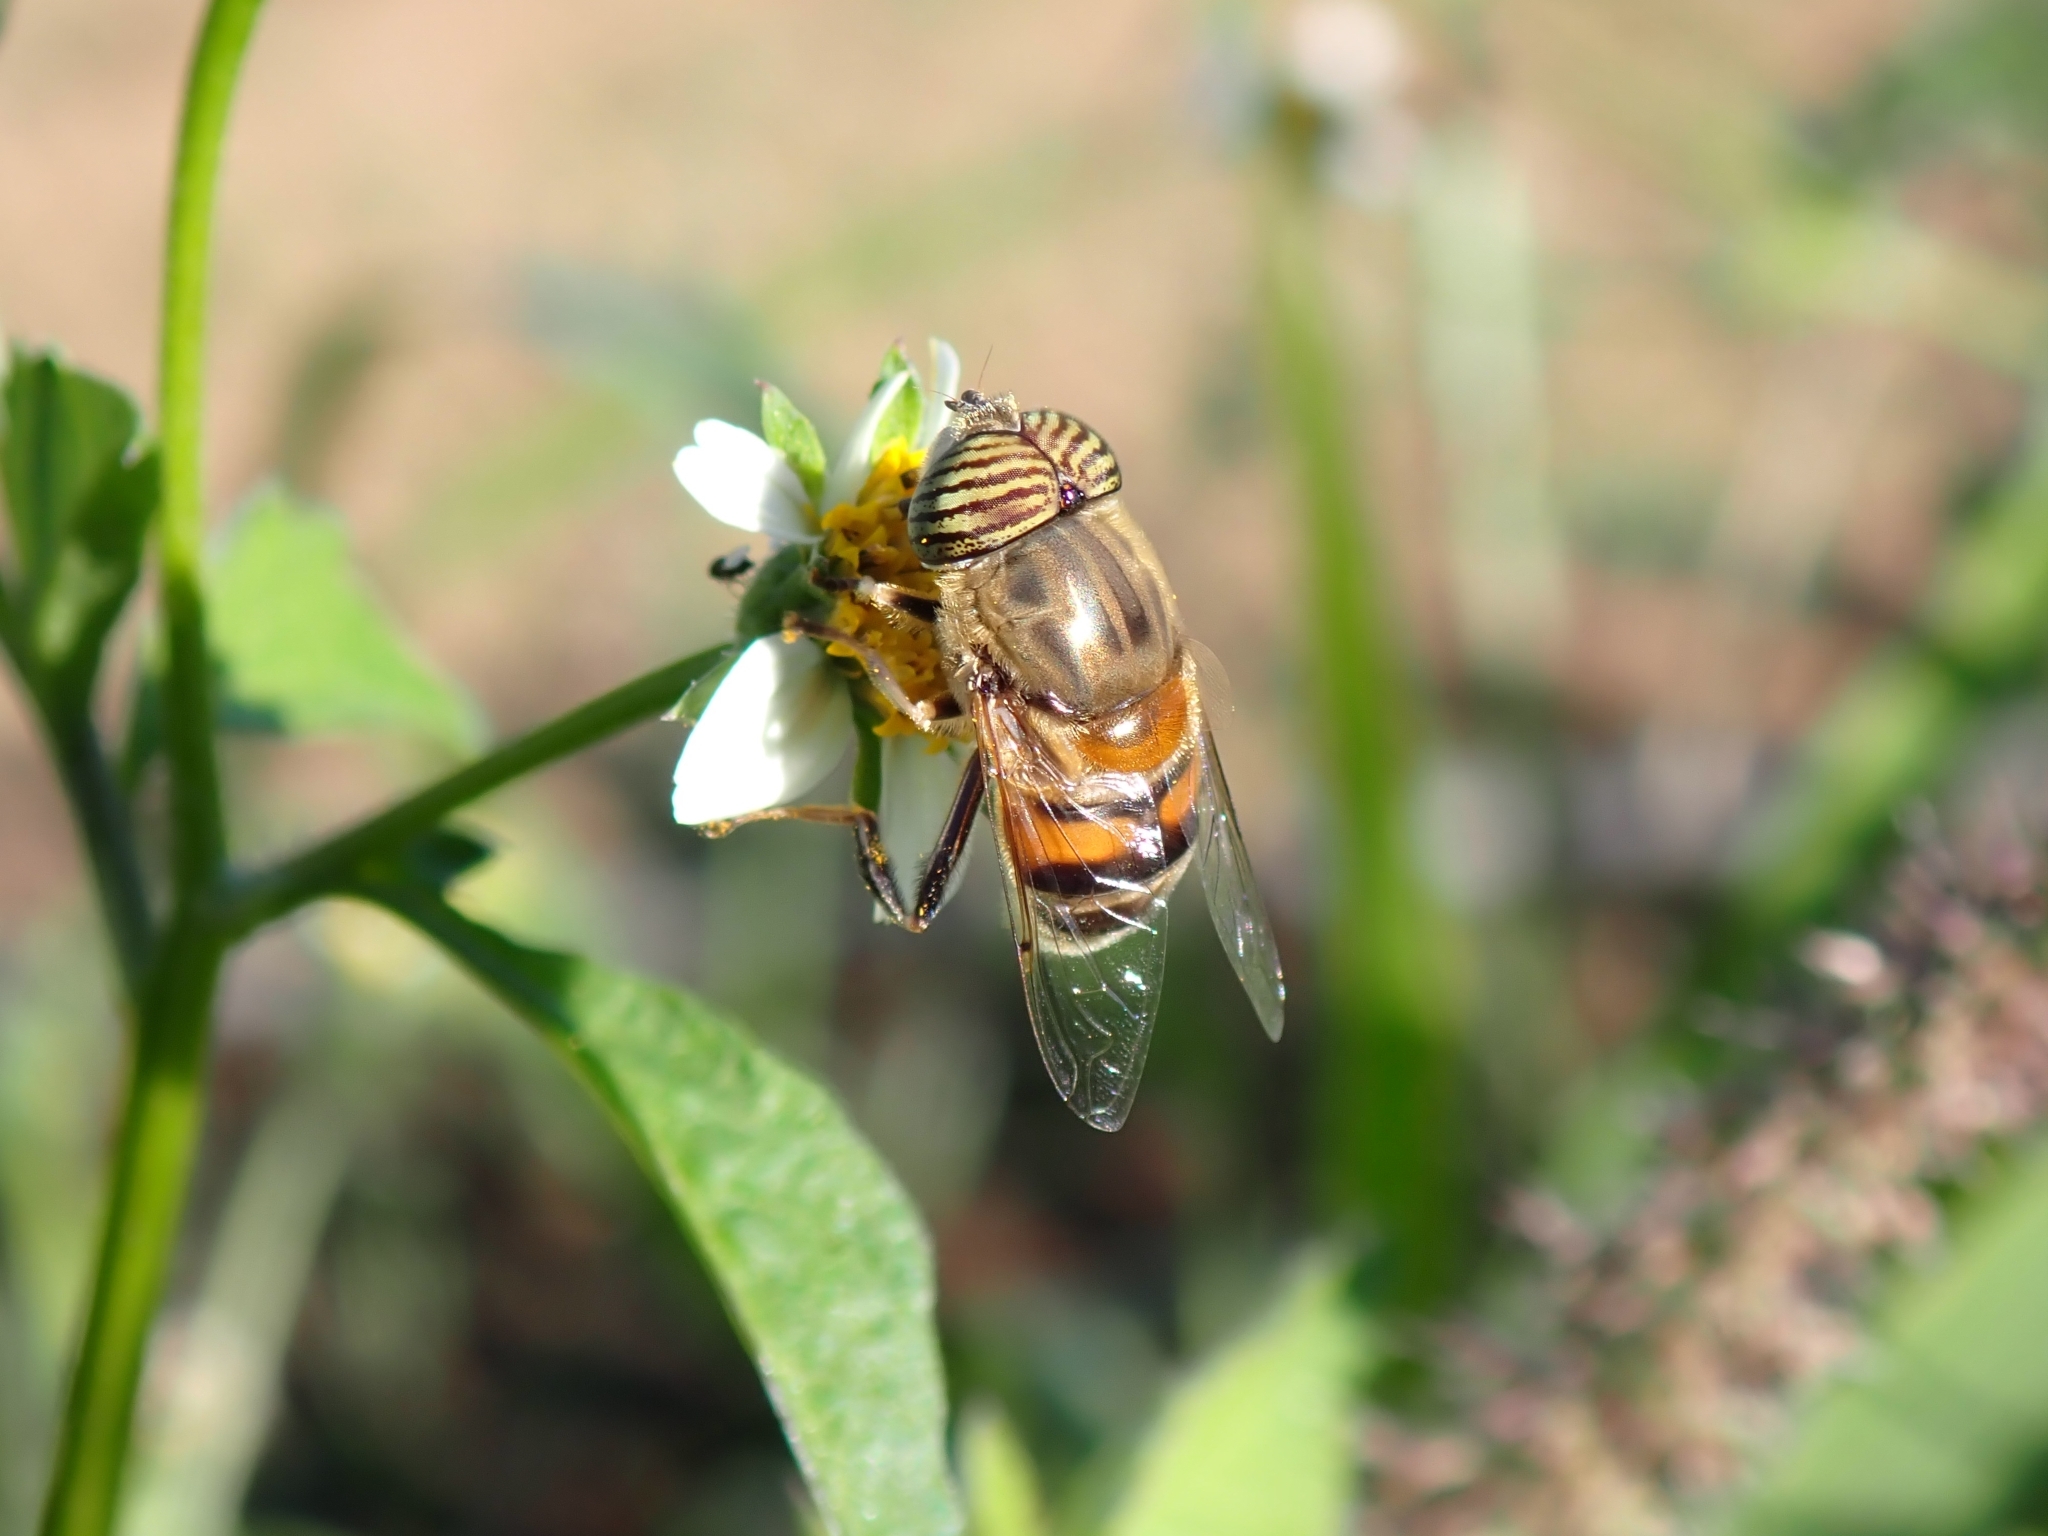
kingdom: Animalia
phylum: Arthropoda
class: Insecta
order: Diptera
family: Syrphidae
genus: Eristalinus
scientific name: Eristalinus taeniops
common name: Syrphid fly
